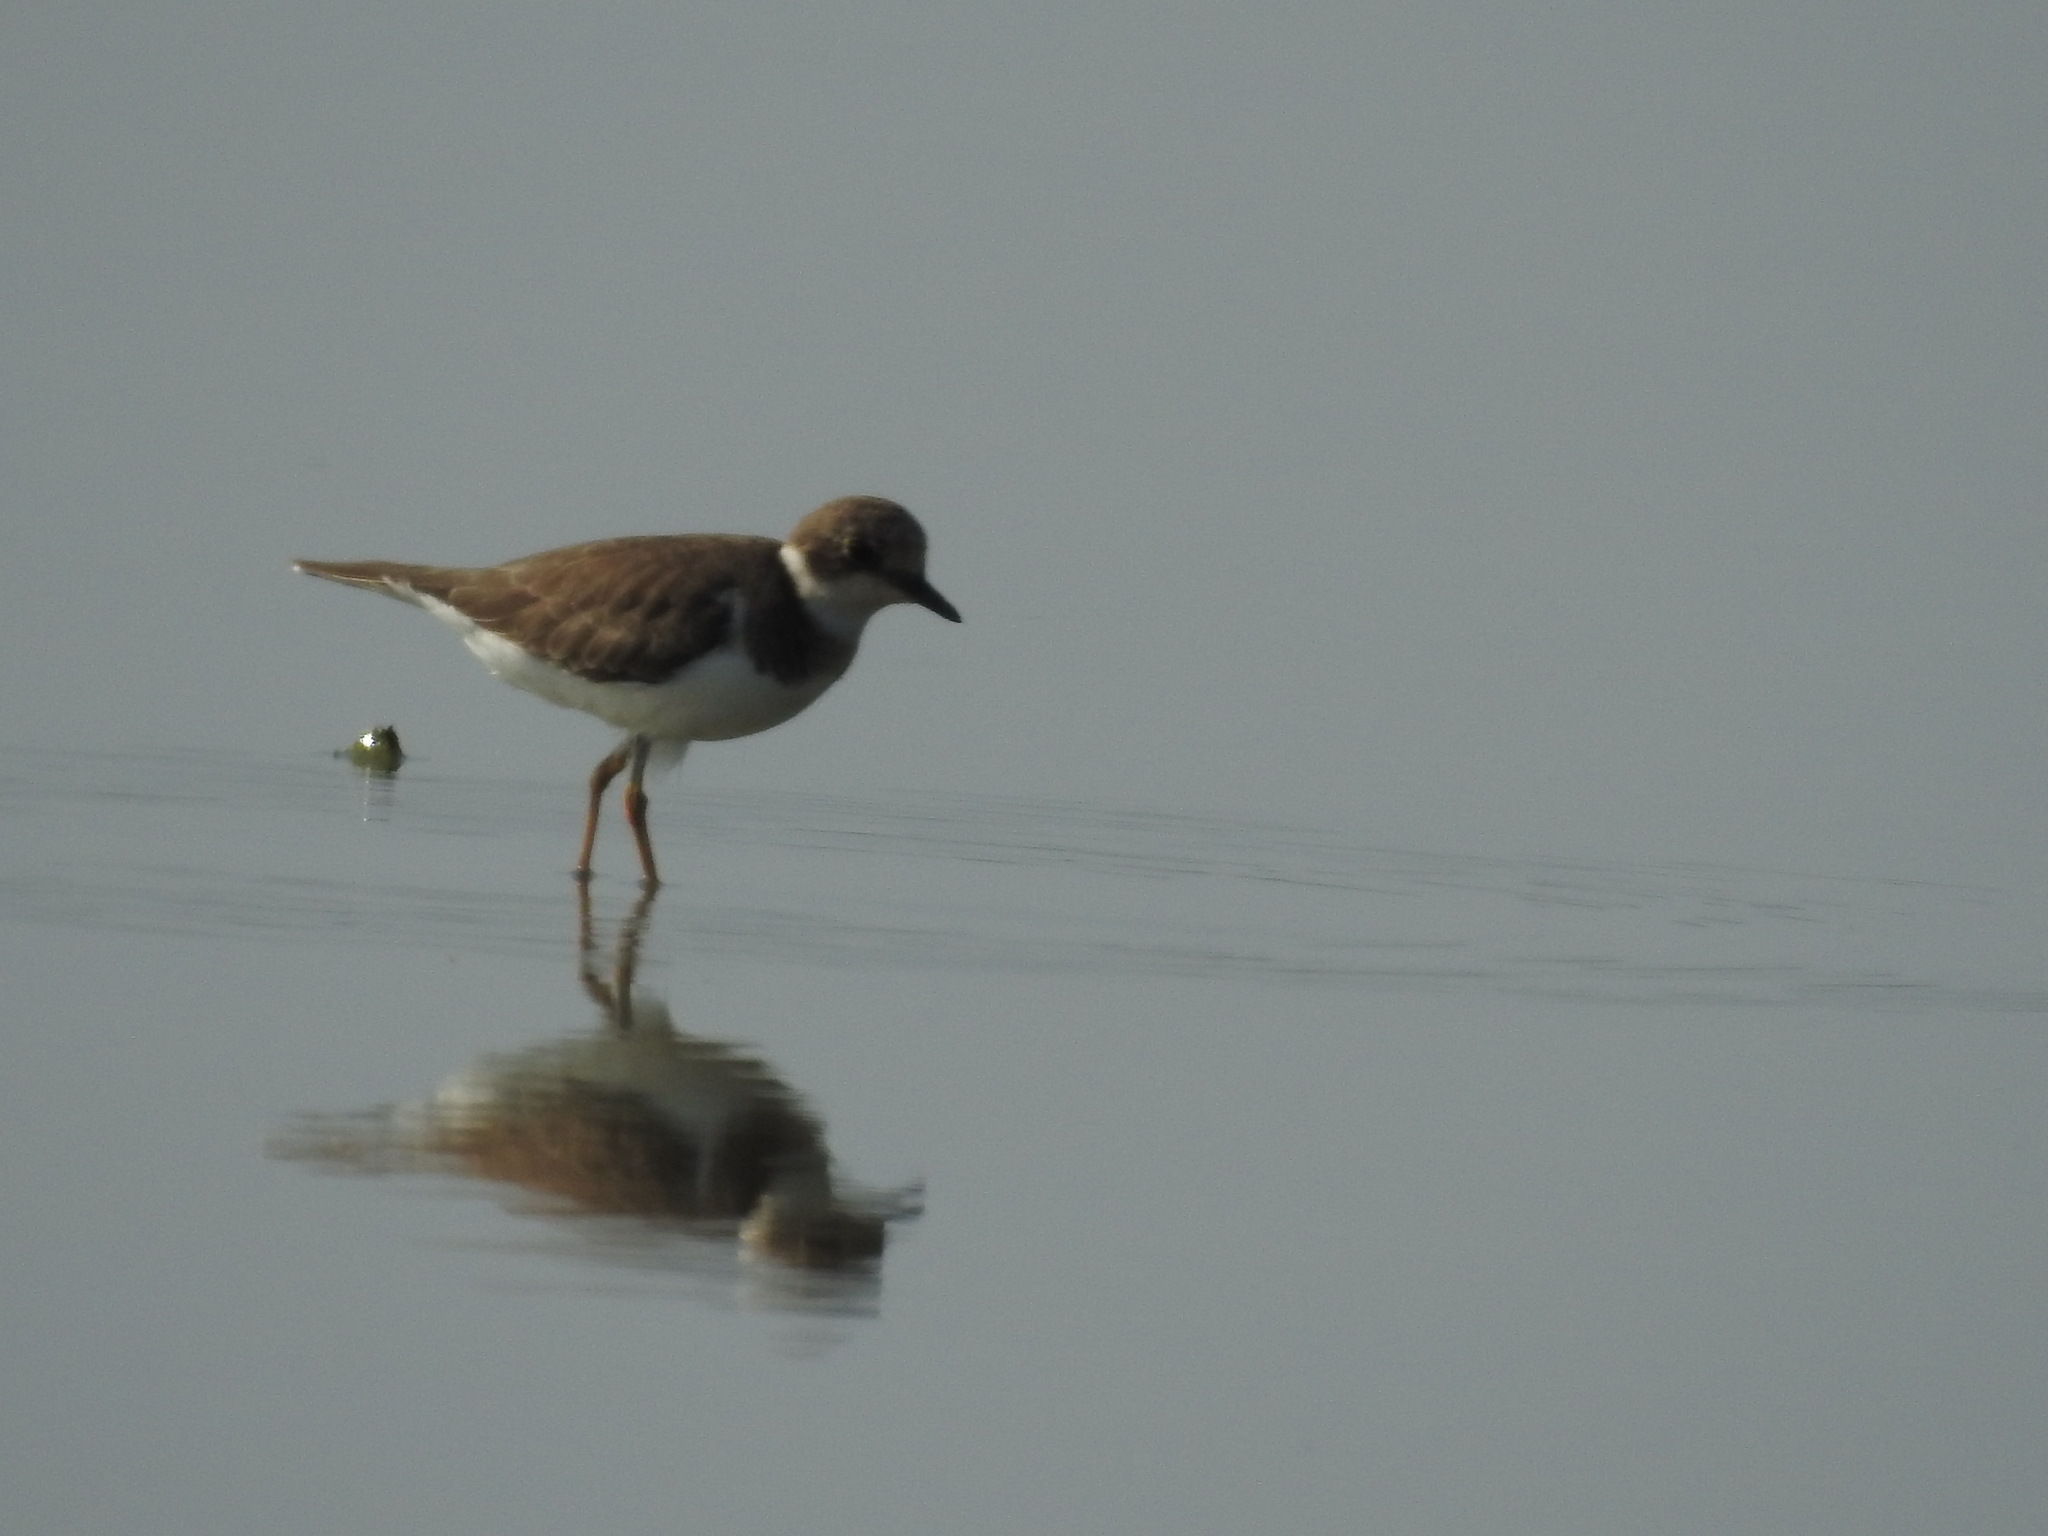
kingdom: Animalia
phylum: Chordata
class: Aves
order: Charadriiformes
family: Charadriidae
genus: Charadrius
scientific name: Charadrius dubius
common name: Little ringed plover
